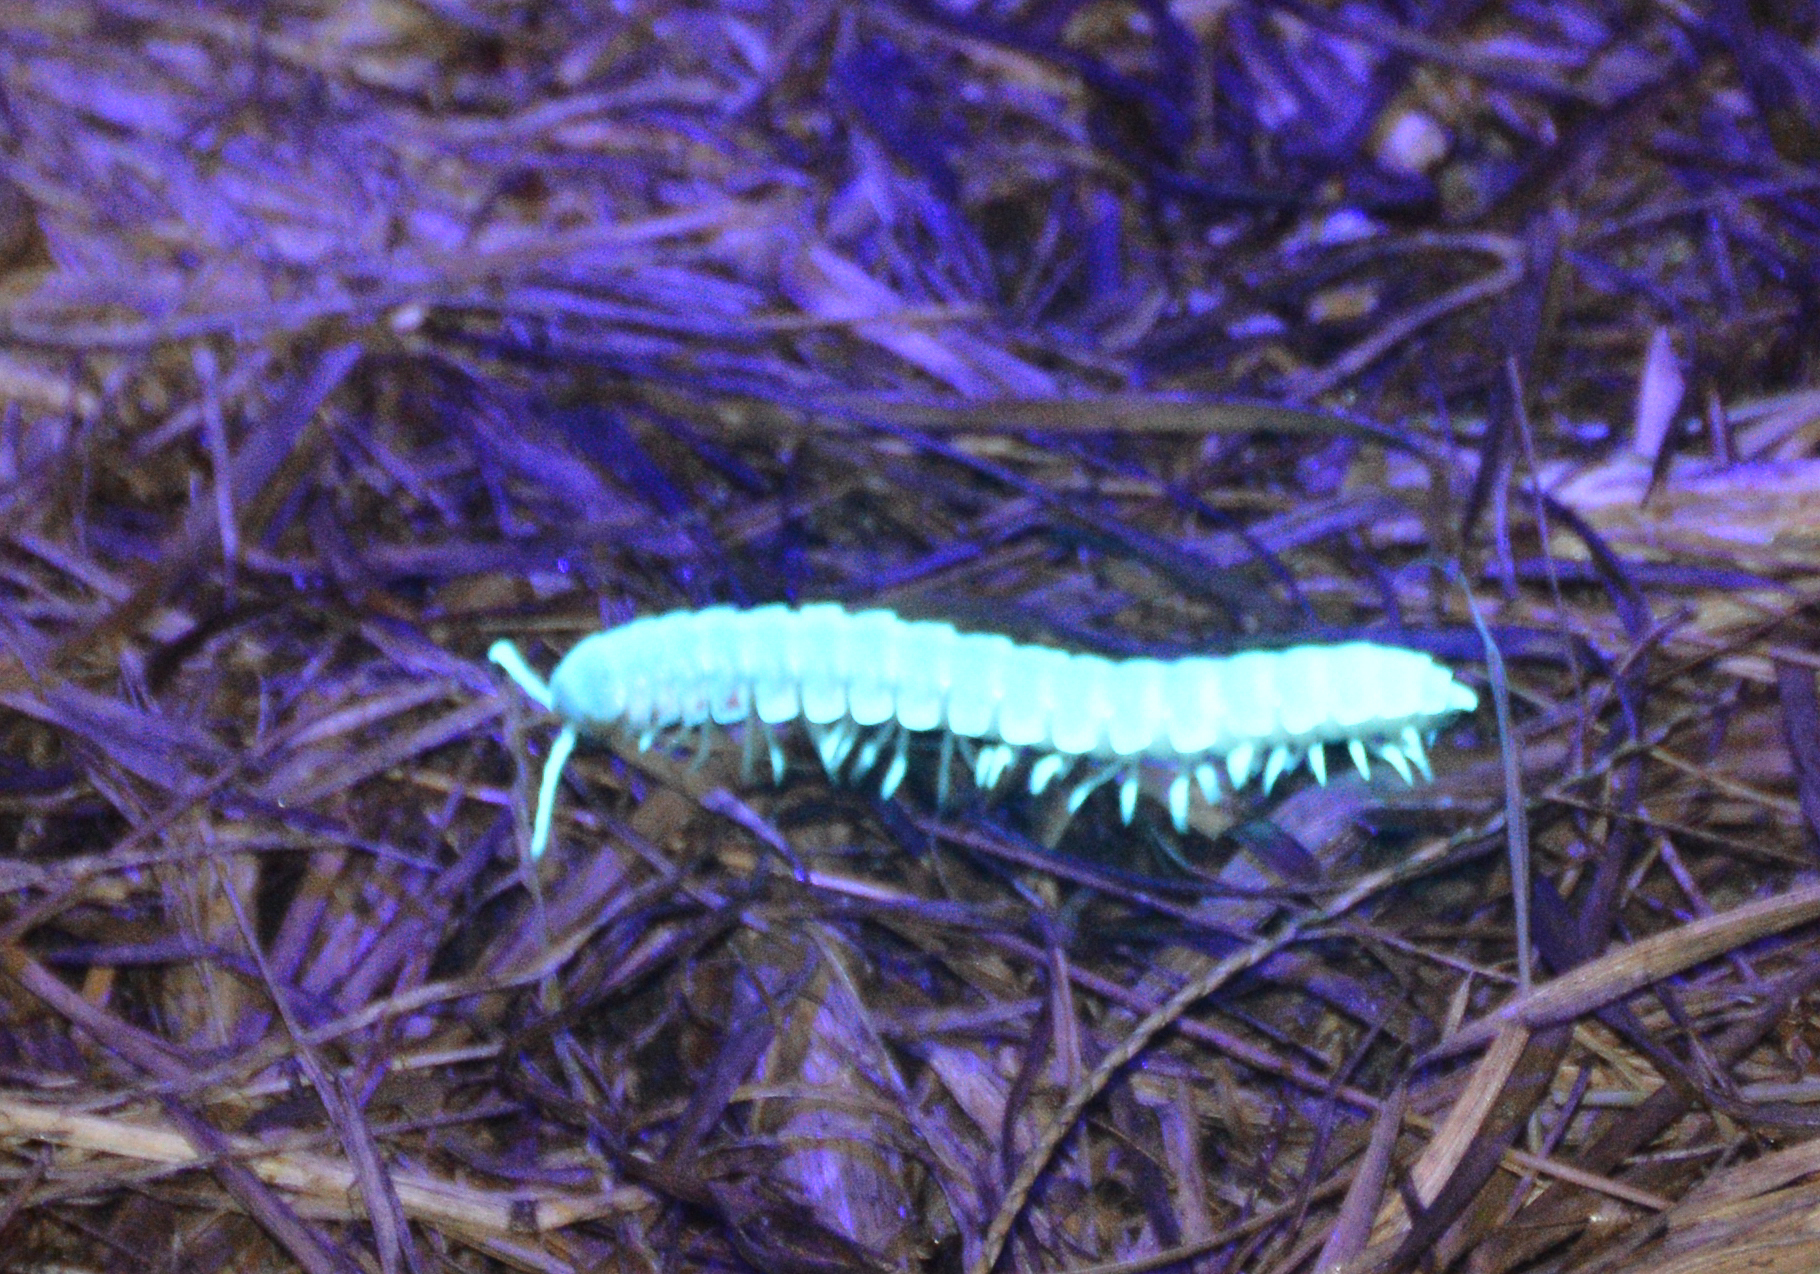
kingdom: Animalia
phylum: Arthropoda
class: Diplopoda
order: Polydesmida
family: Xystodesmidae
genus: Pachydesmus
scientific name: Pachydesmus crassicutis
